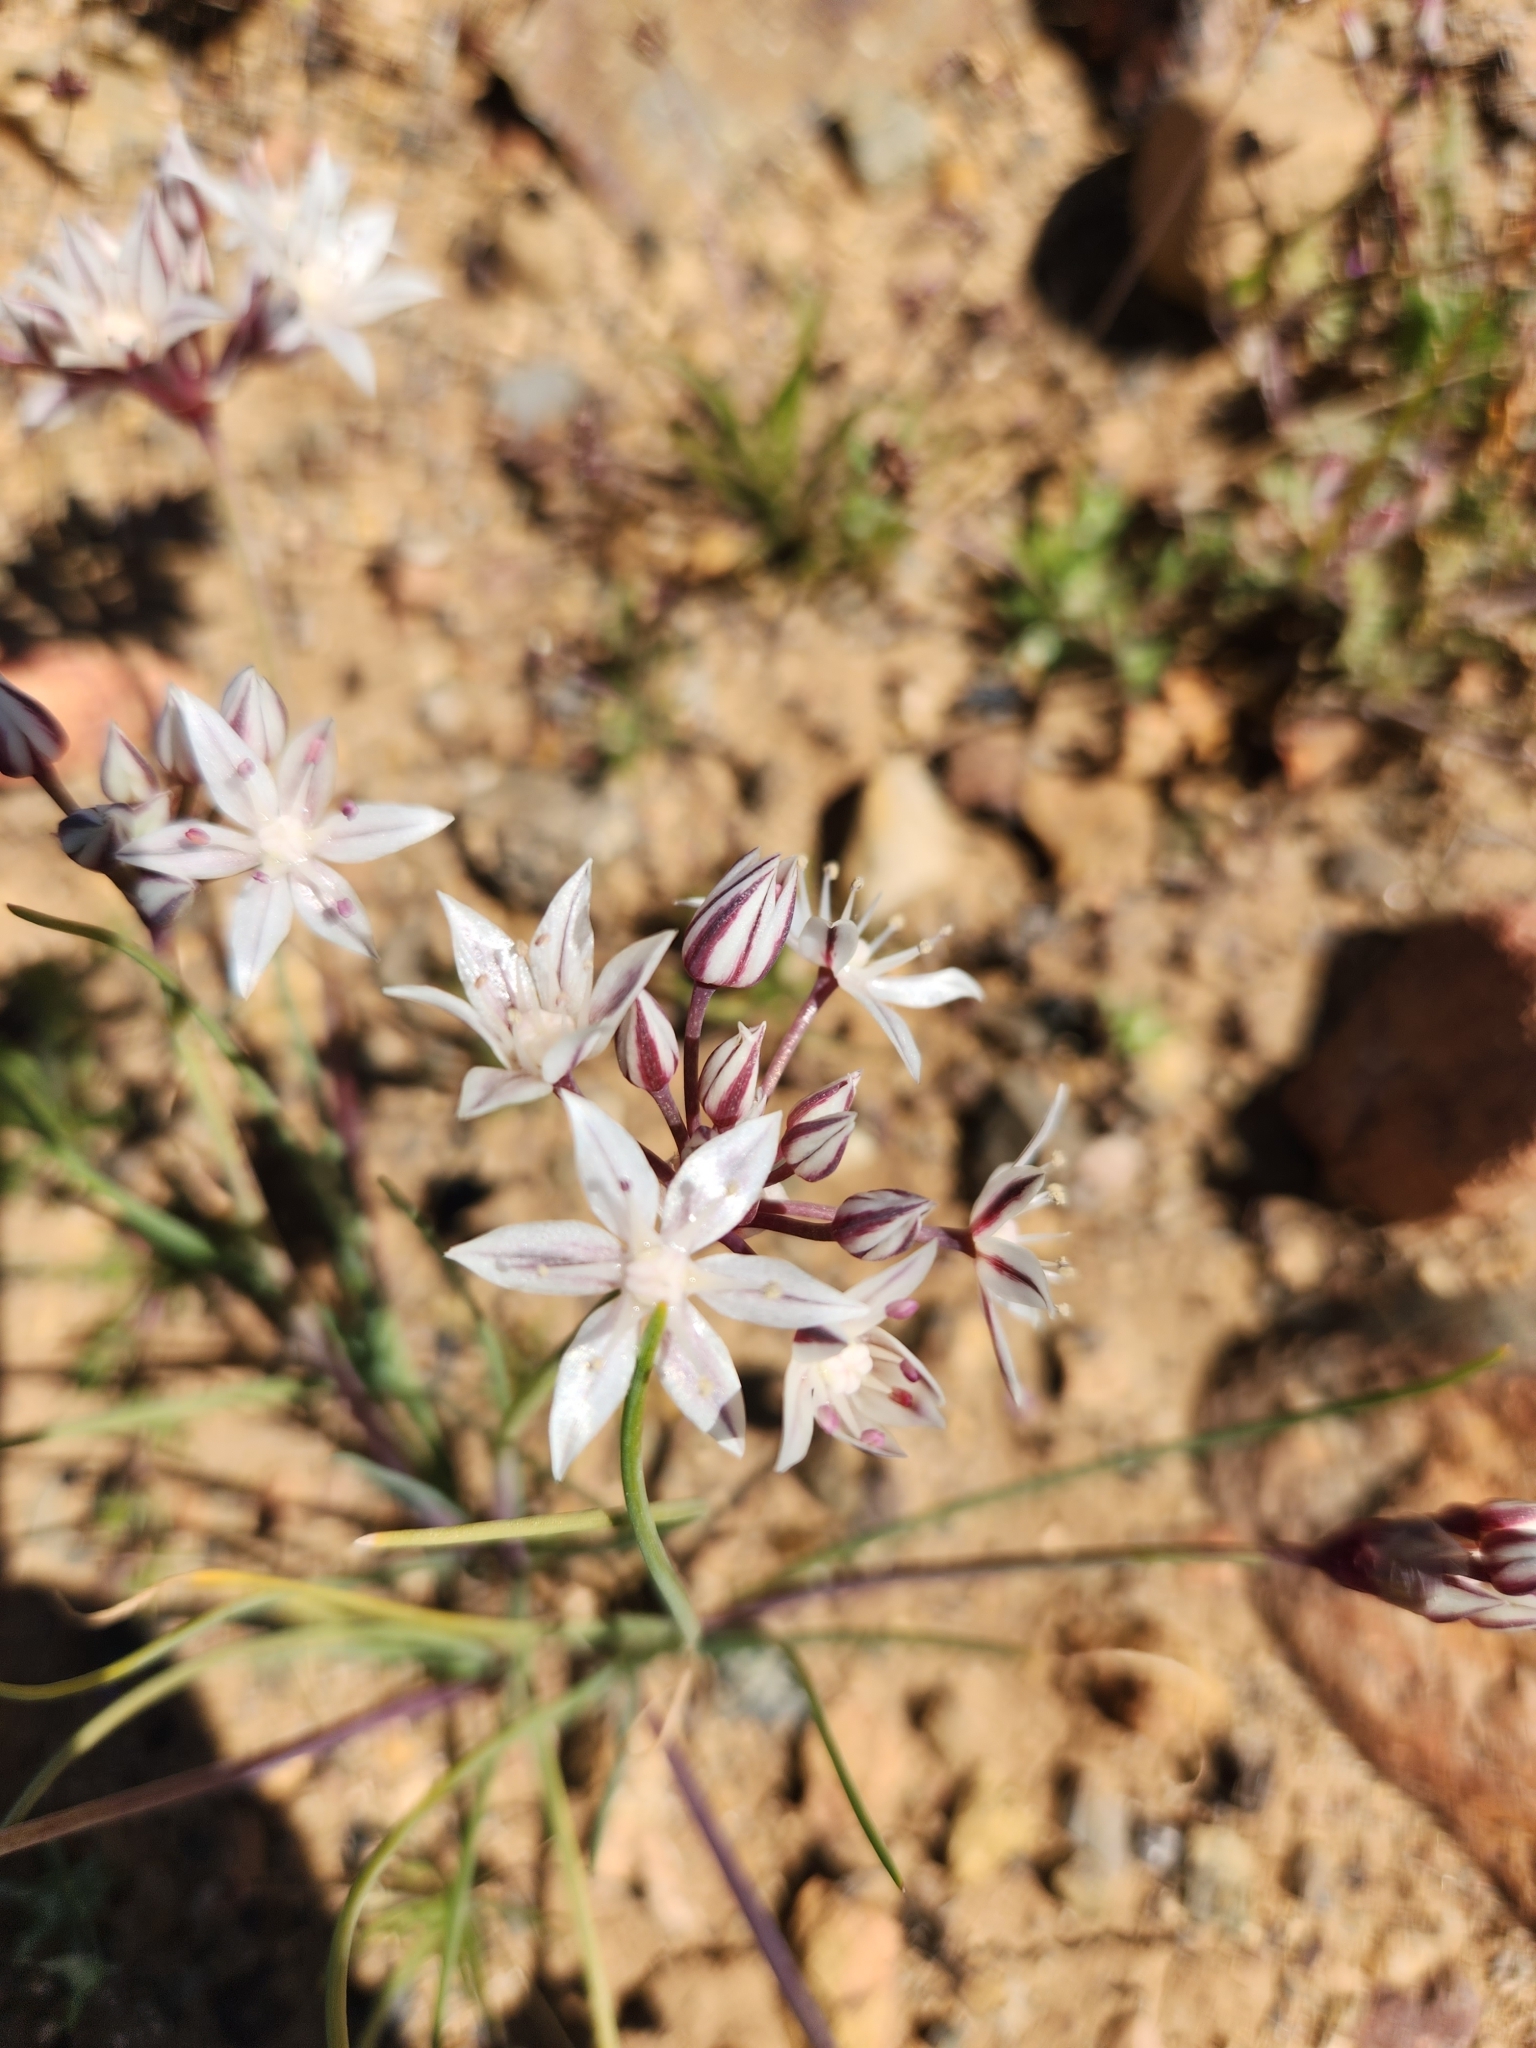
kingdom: Plantae
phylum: Tracheophyta
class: Liliopsida
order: Asparagales
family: Amaryllidaceae
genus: Allium
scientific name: Allium haematochiton
